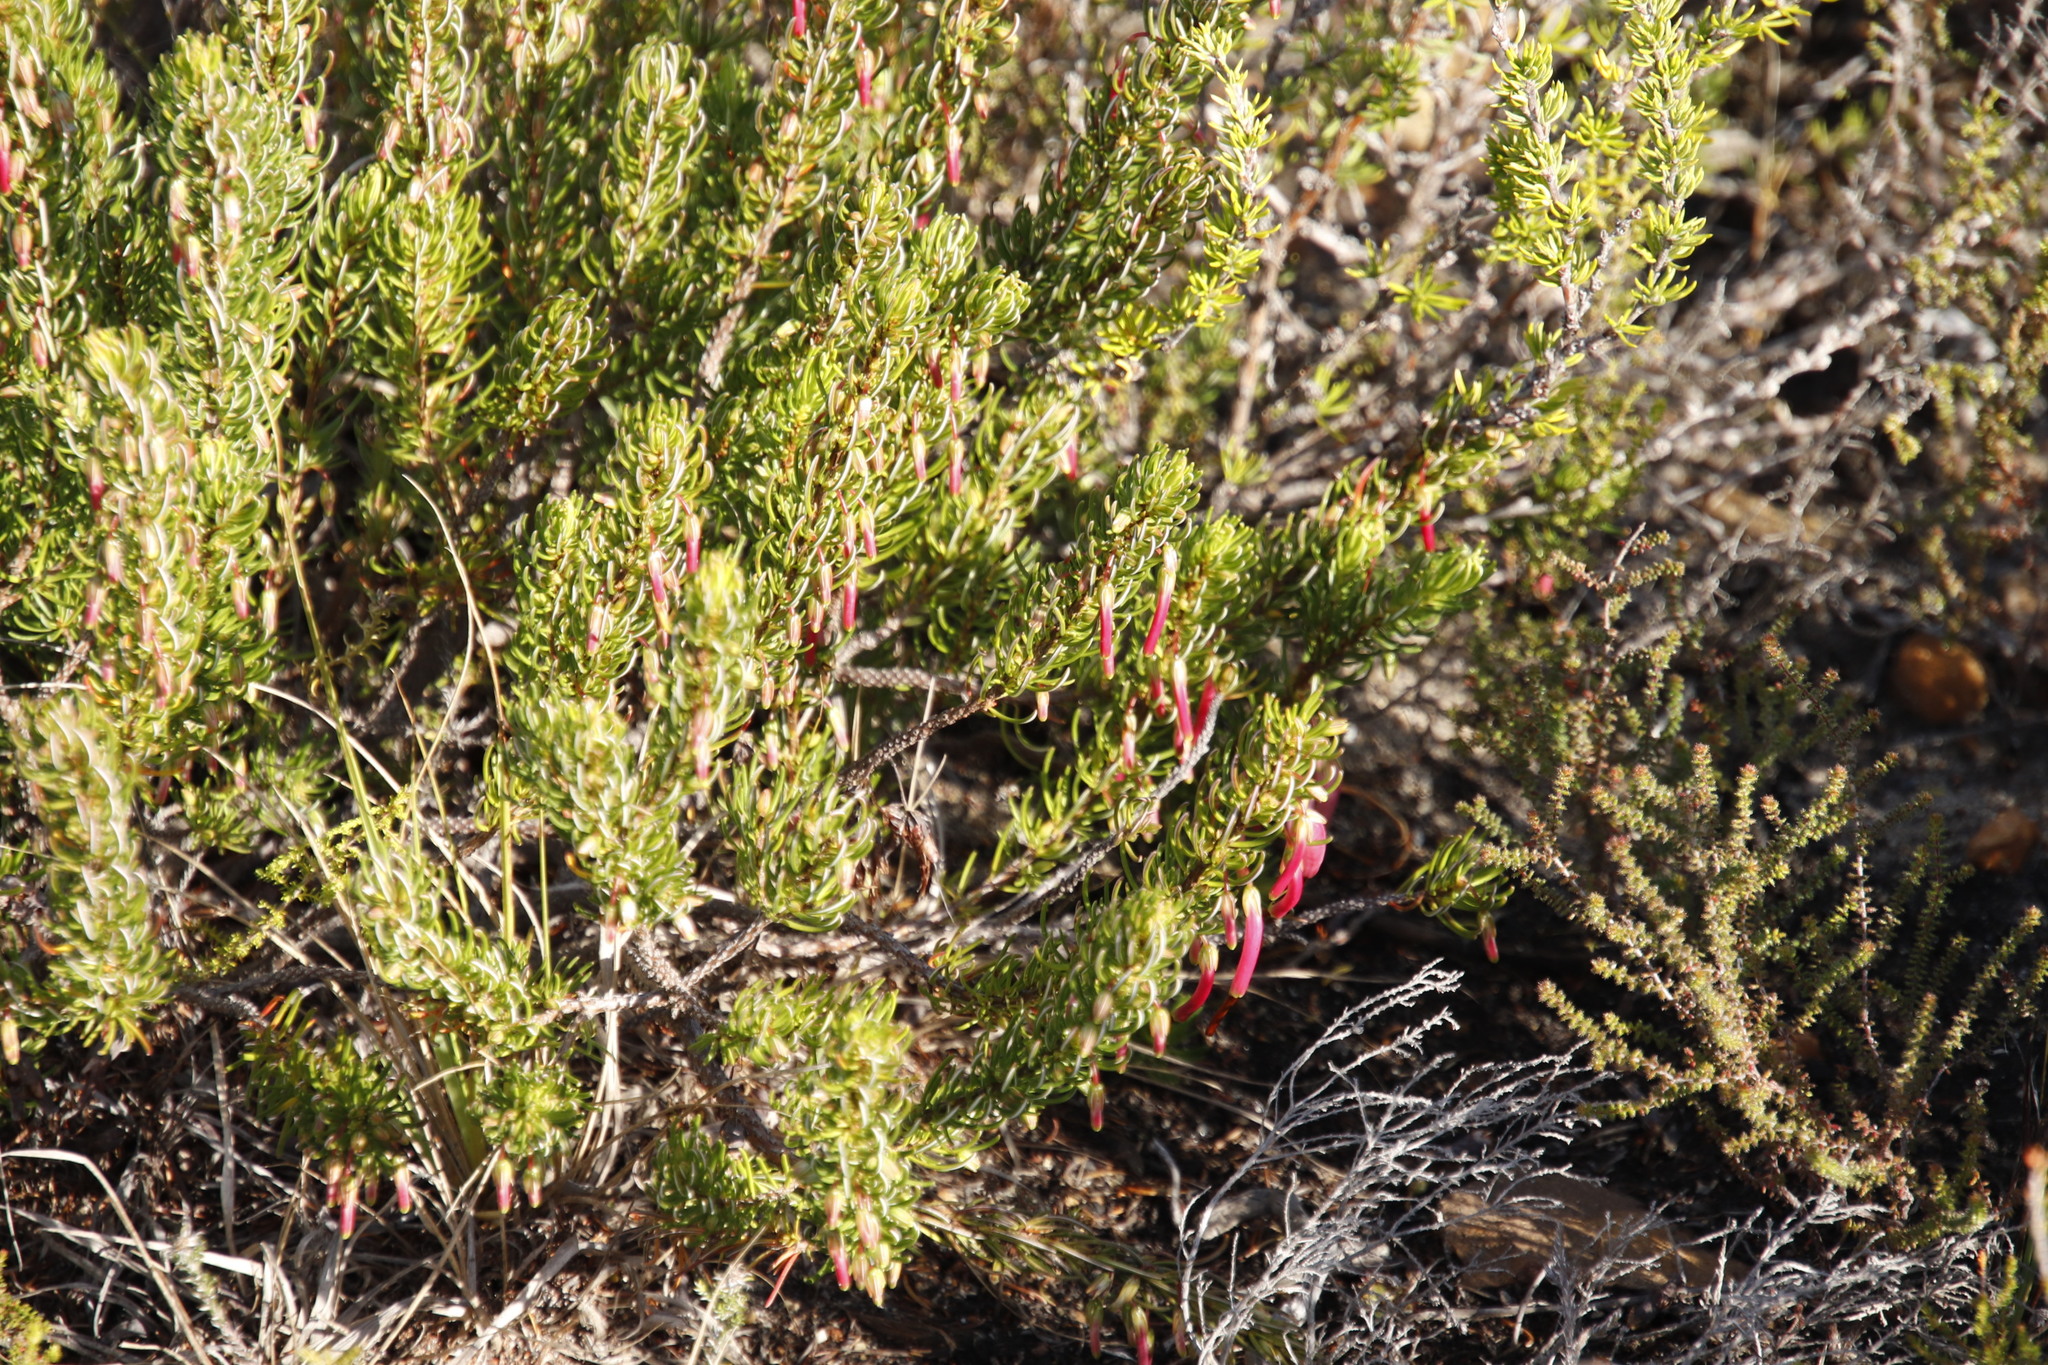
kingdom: Plantae
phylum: Tracheophyta
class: Magnoliopsida
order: Ericales
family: Ericaceae
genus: Erica
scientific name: Erica plukenetii
